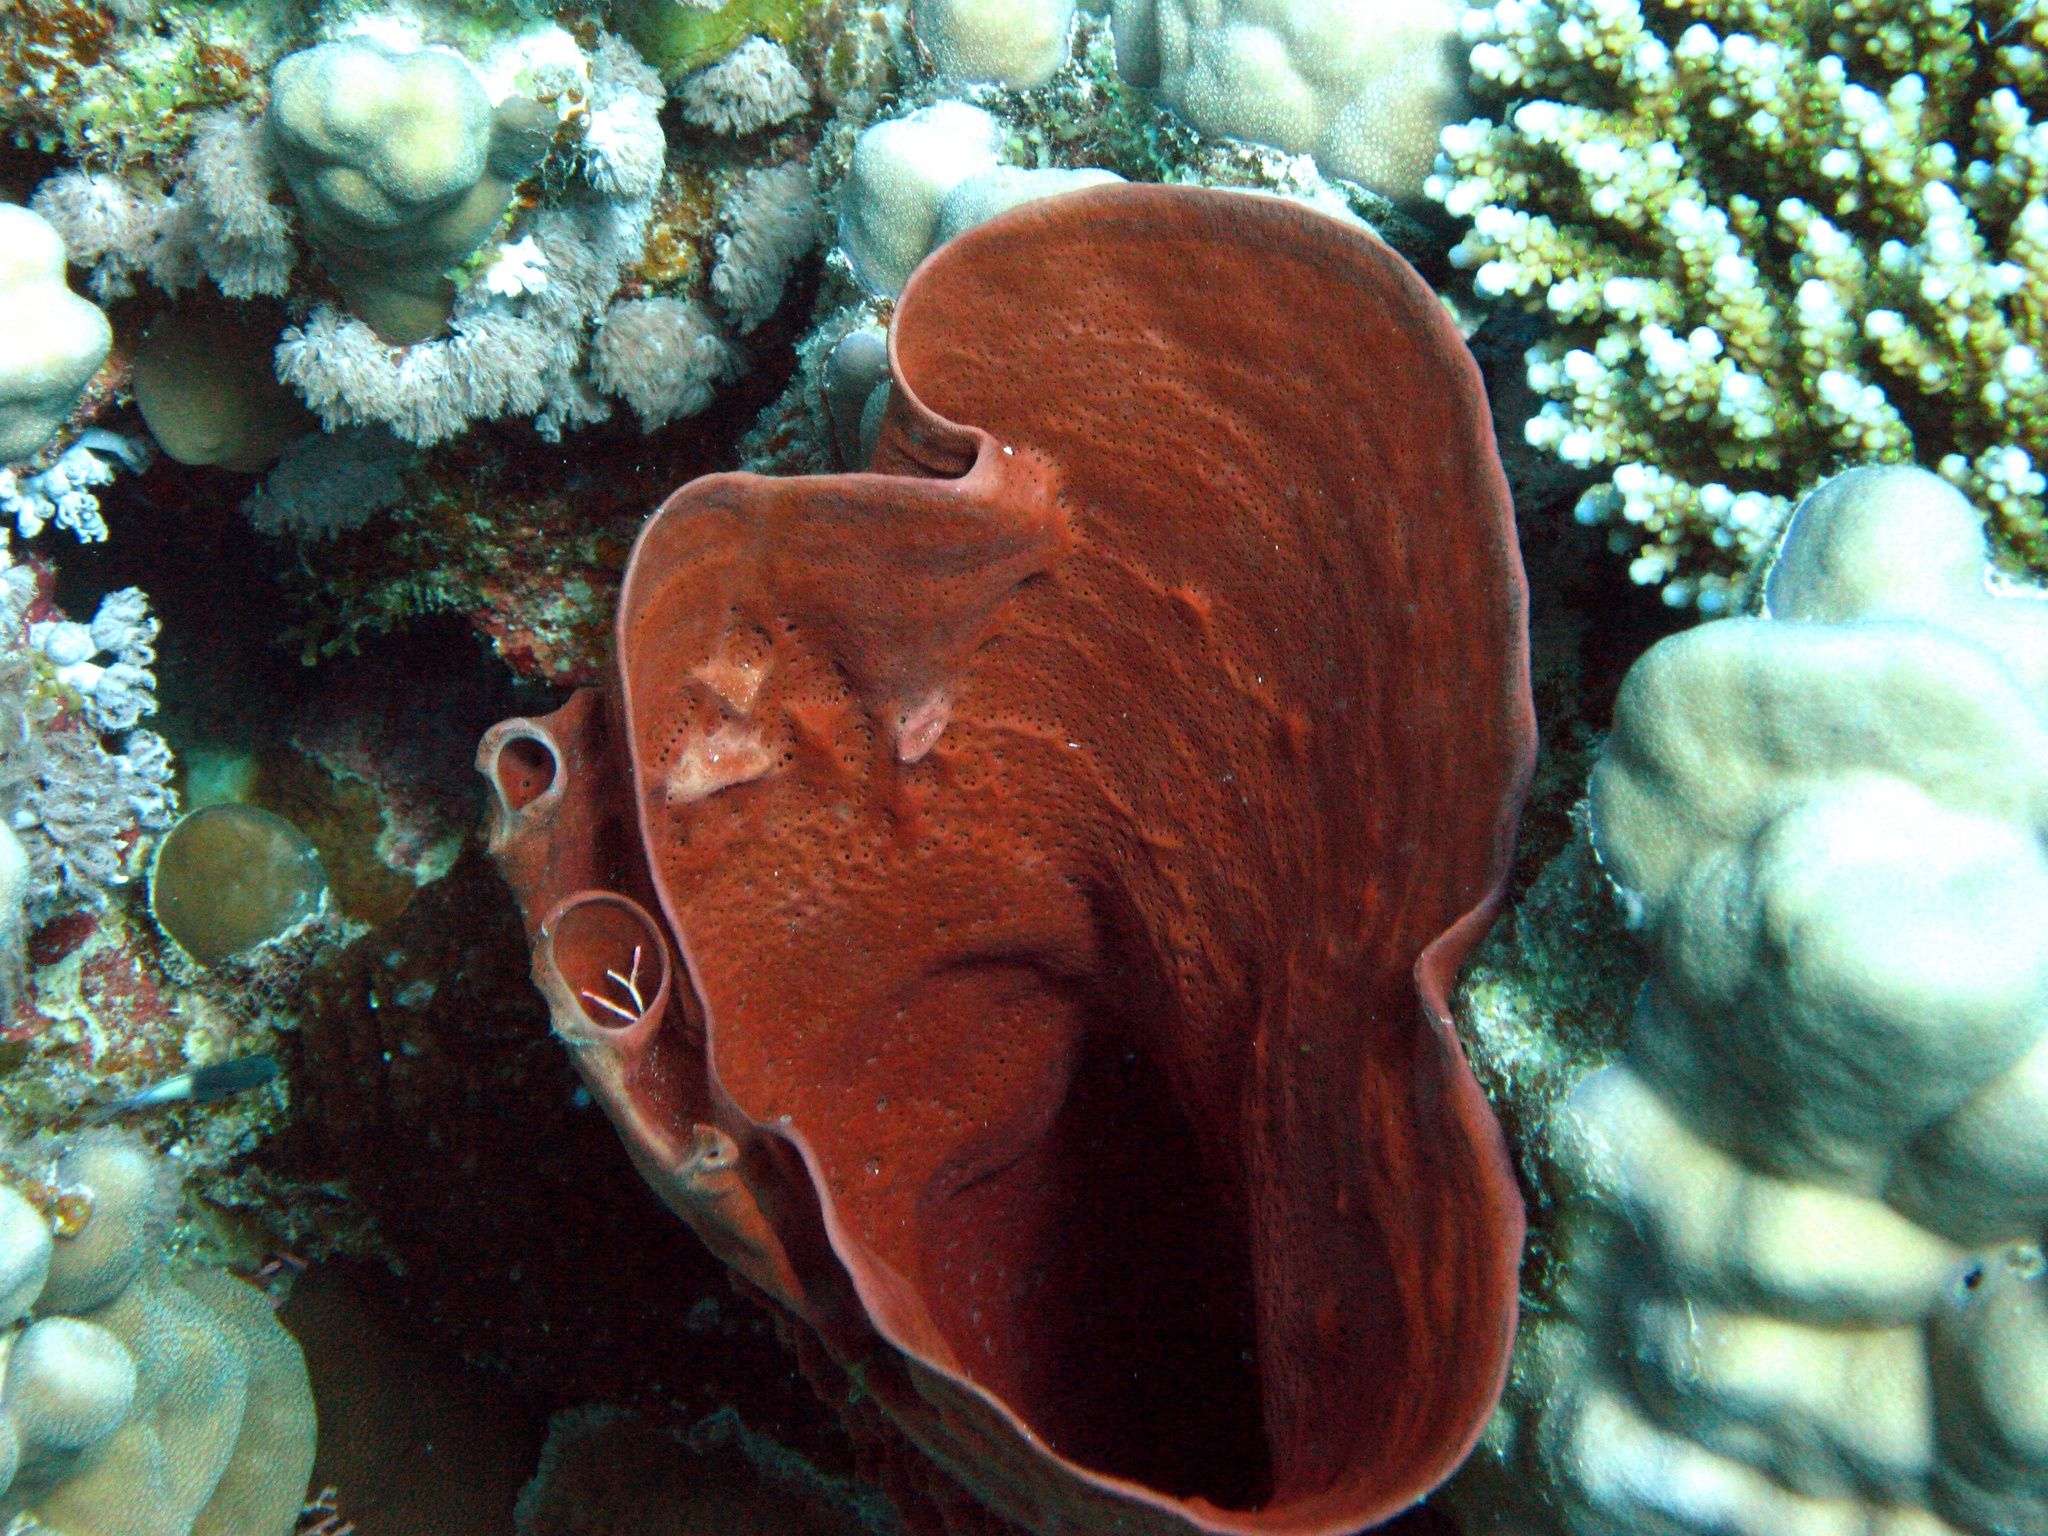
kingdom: Animalia
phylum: Porifera
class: Demospongiae
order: Haplosclerida
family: Callyspongiidae
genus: Callyspongia
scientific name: Callyspongia crassa
